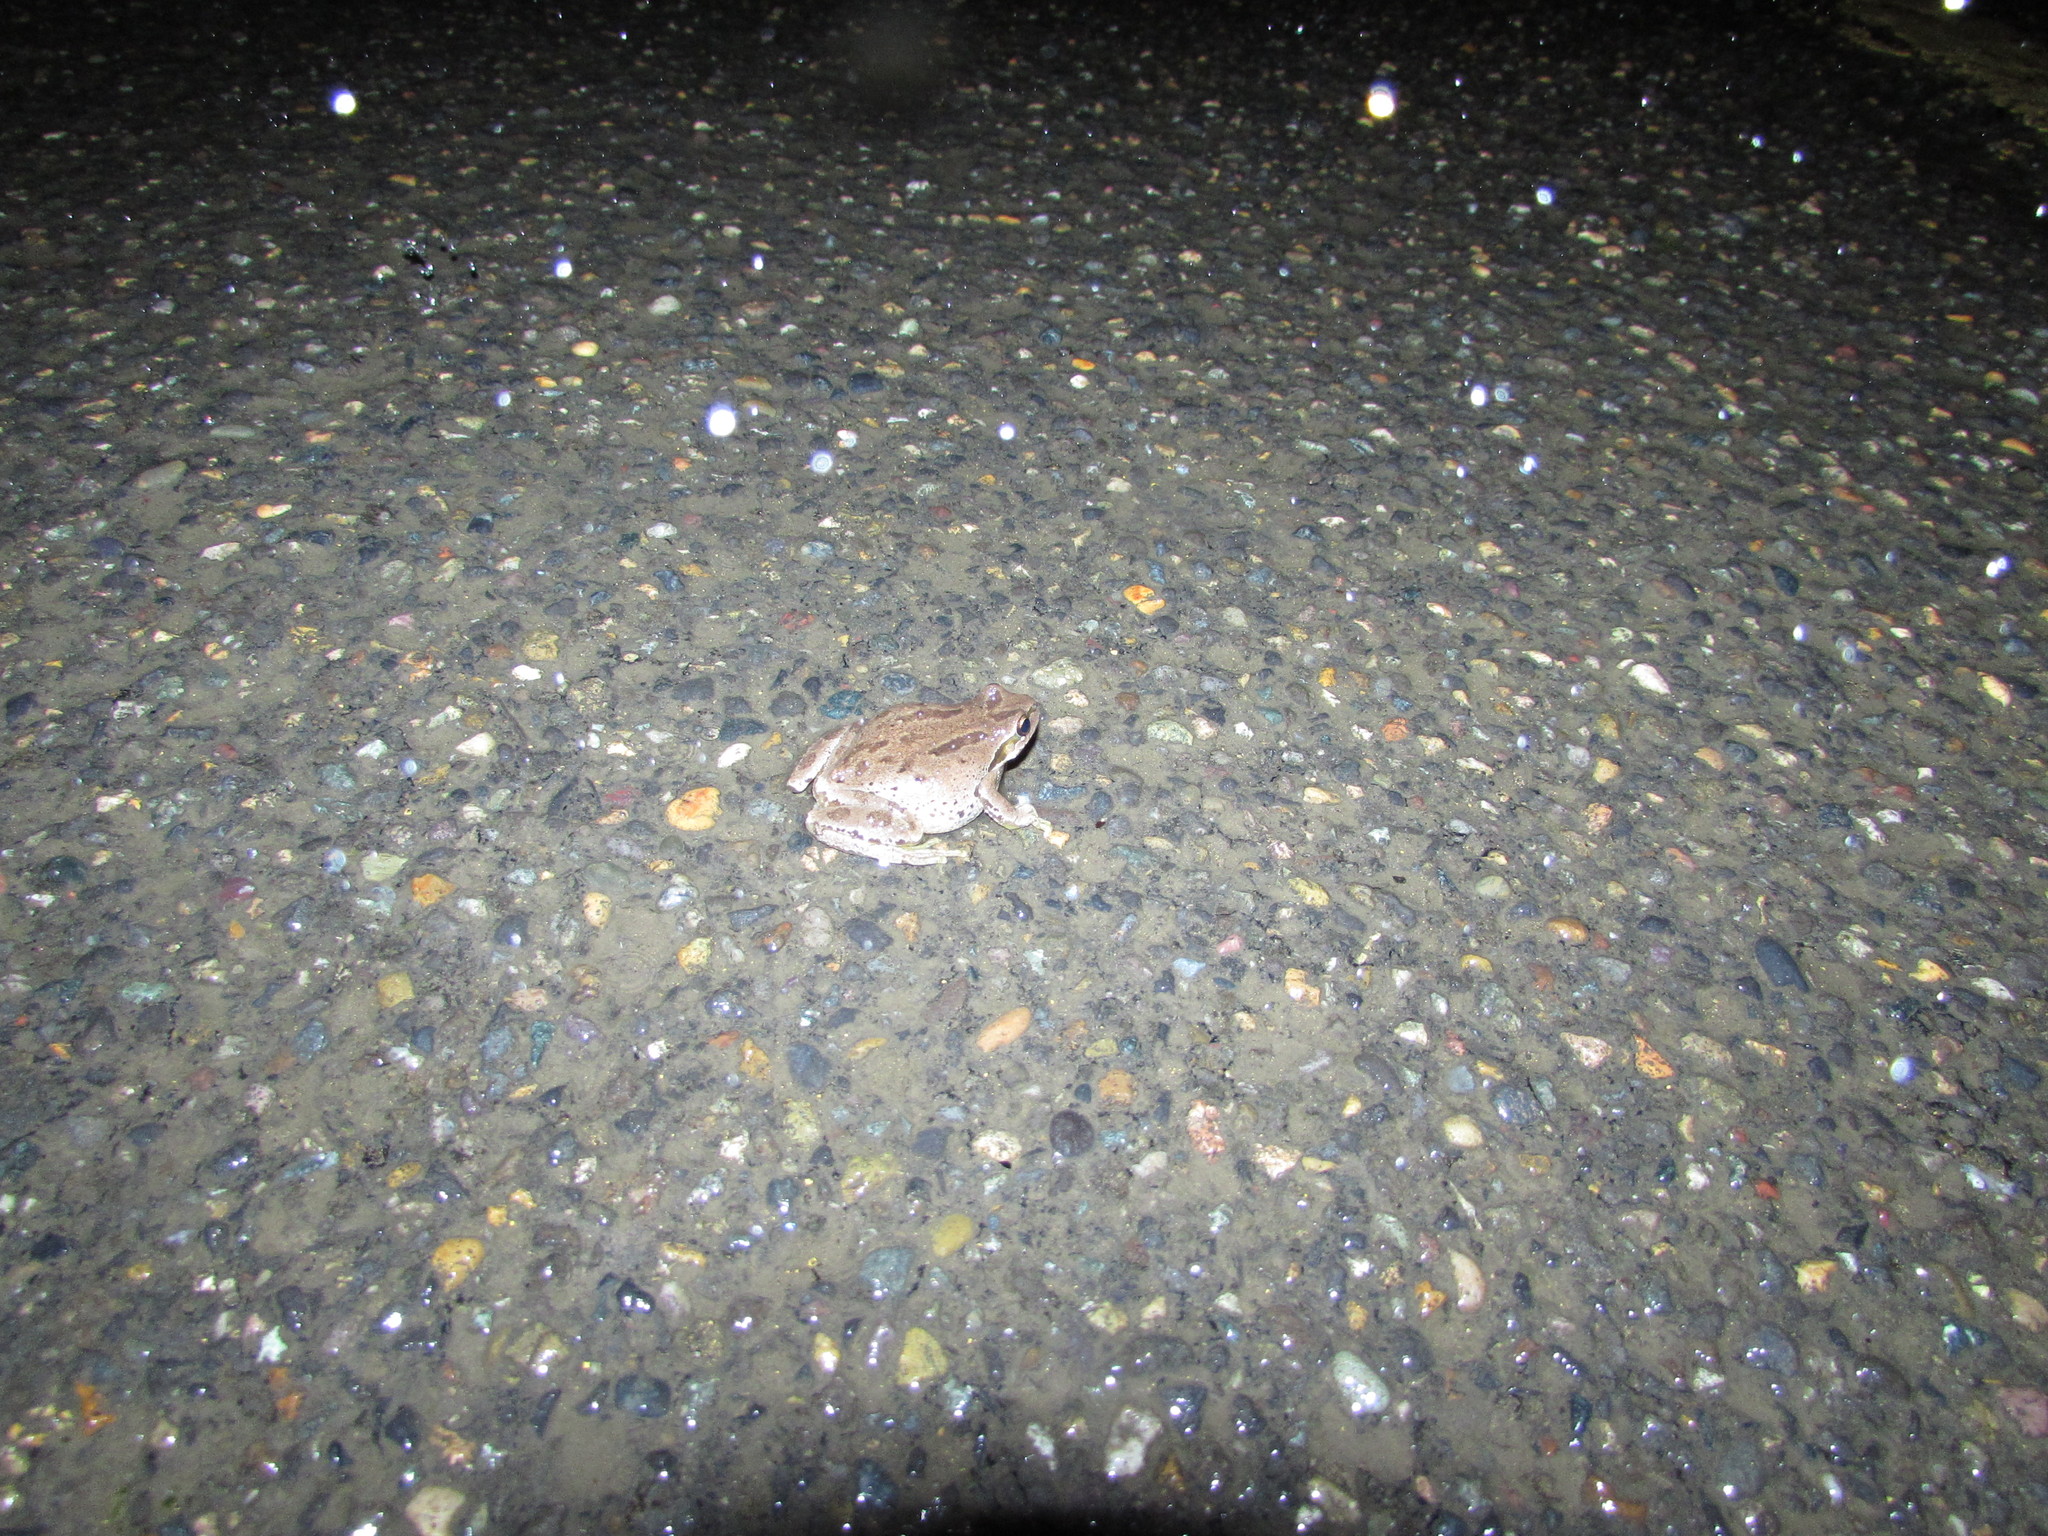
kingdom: Animalia
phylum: Chordata
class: Amphibia
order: Anura
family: Hylidae
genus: Pseudacris
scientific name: Pseudacris regilla
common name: Pacific chorus frog
